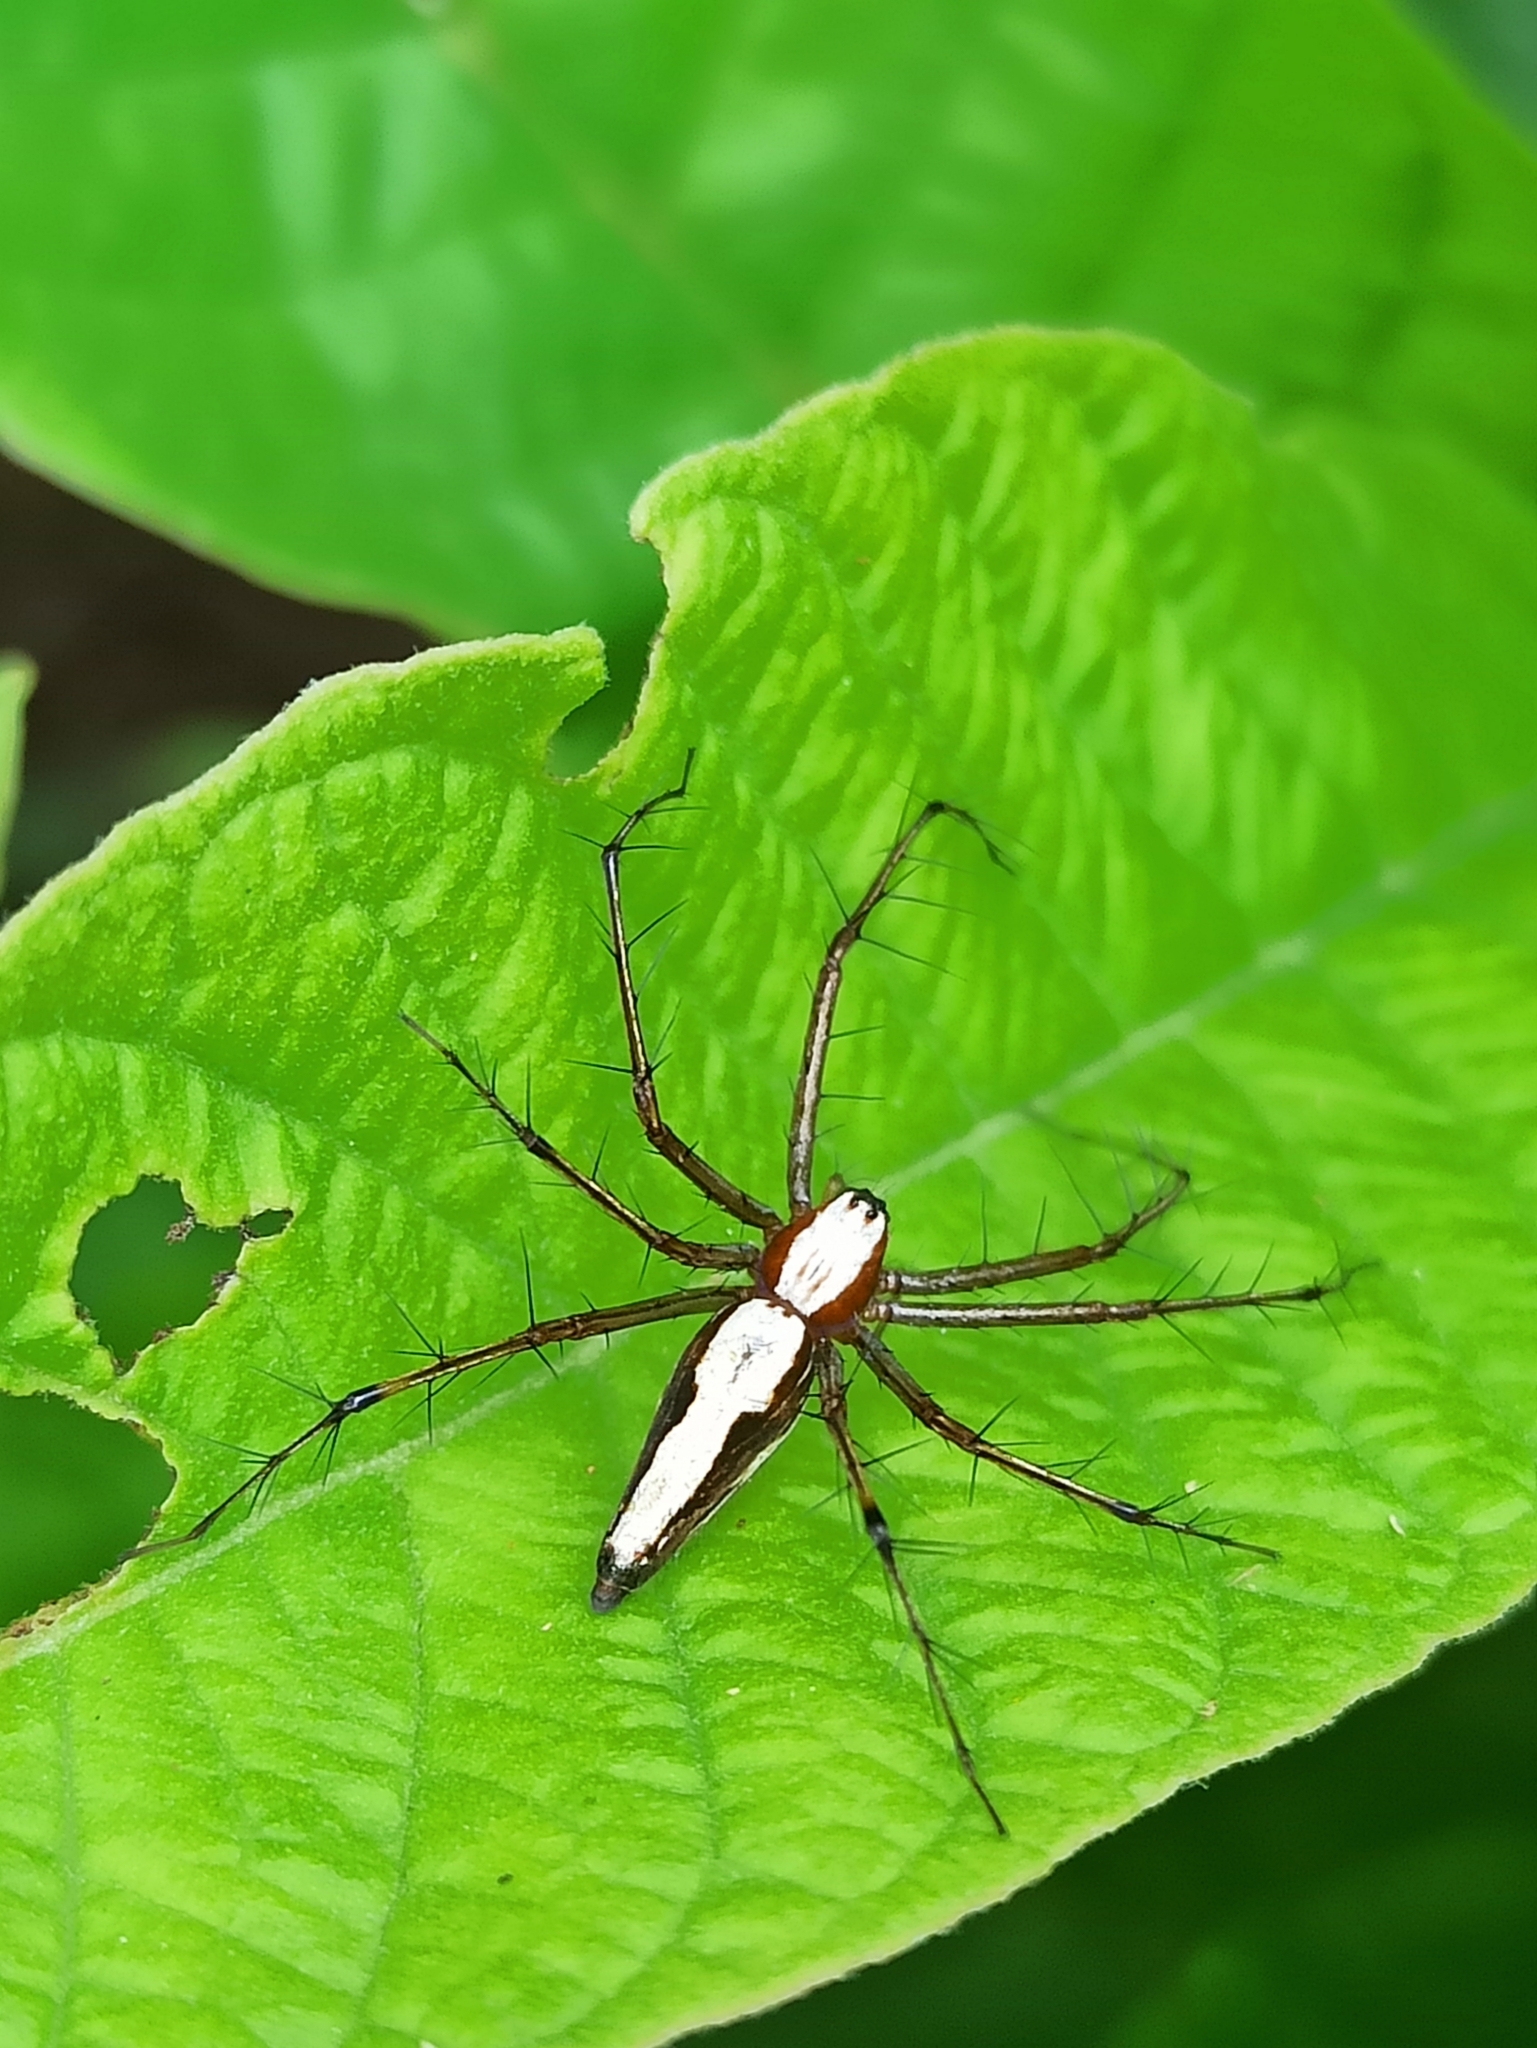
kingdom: Animalia
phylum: Arthropoda
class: Arachnida
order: Araneae
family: Oxyopidae
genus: Oxyopes
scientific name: Oxyopes shweta
